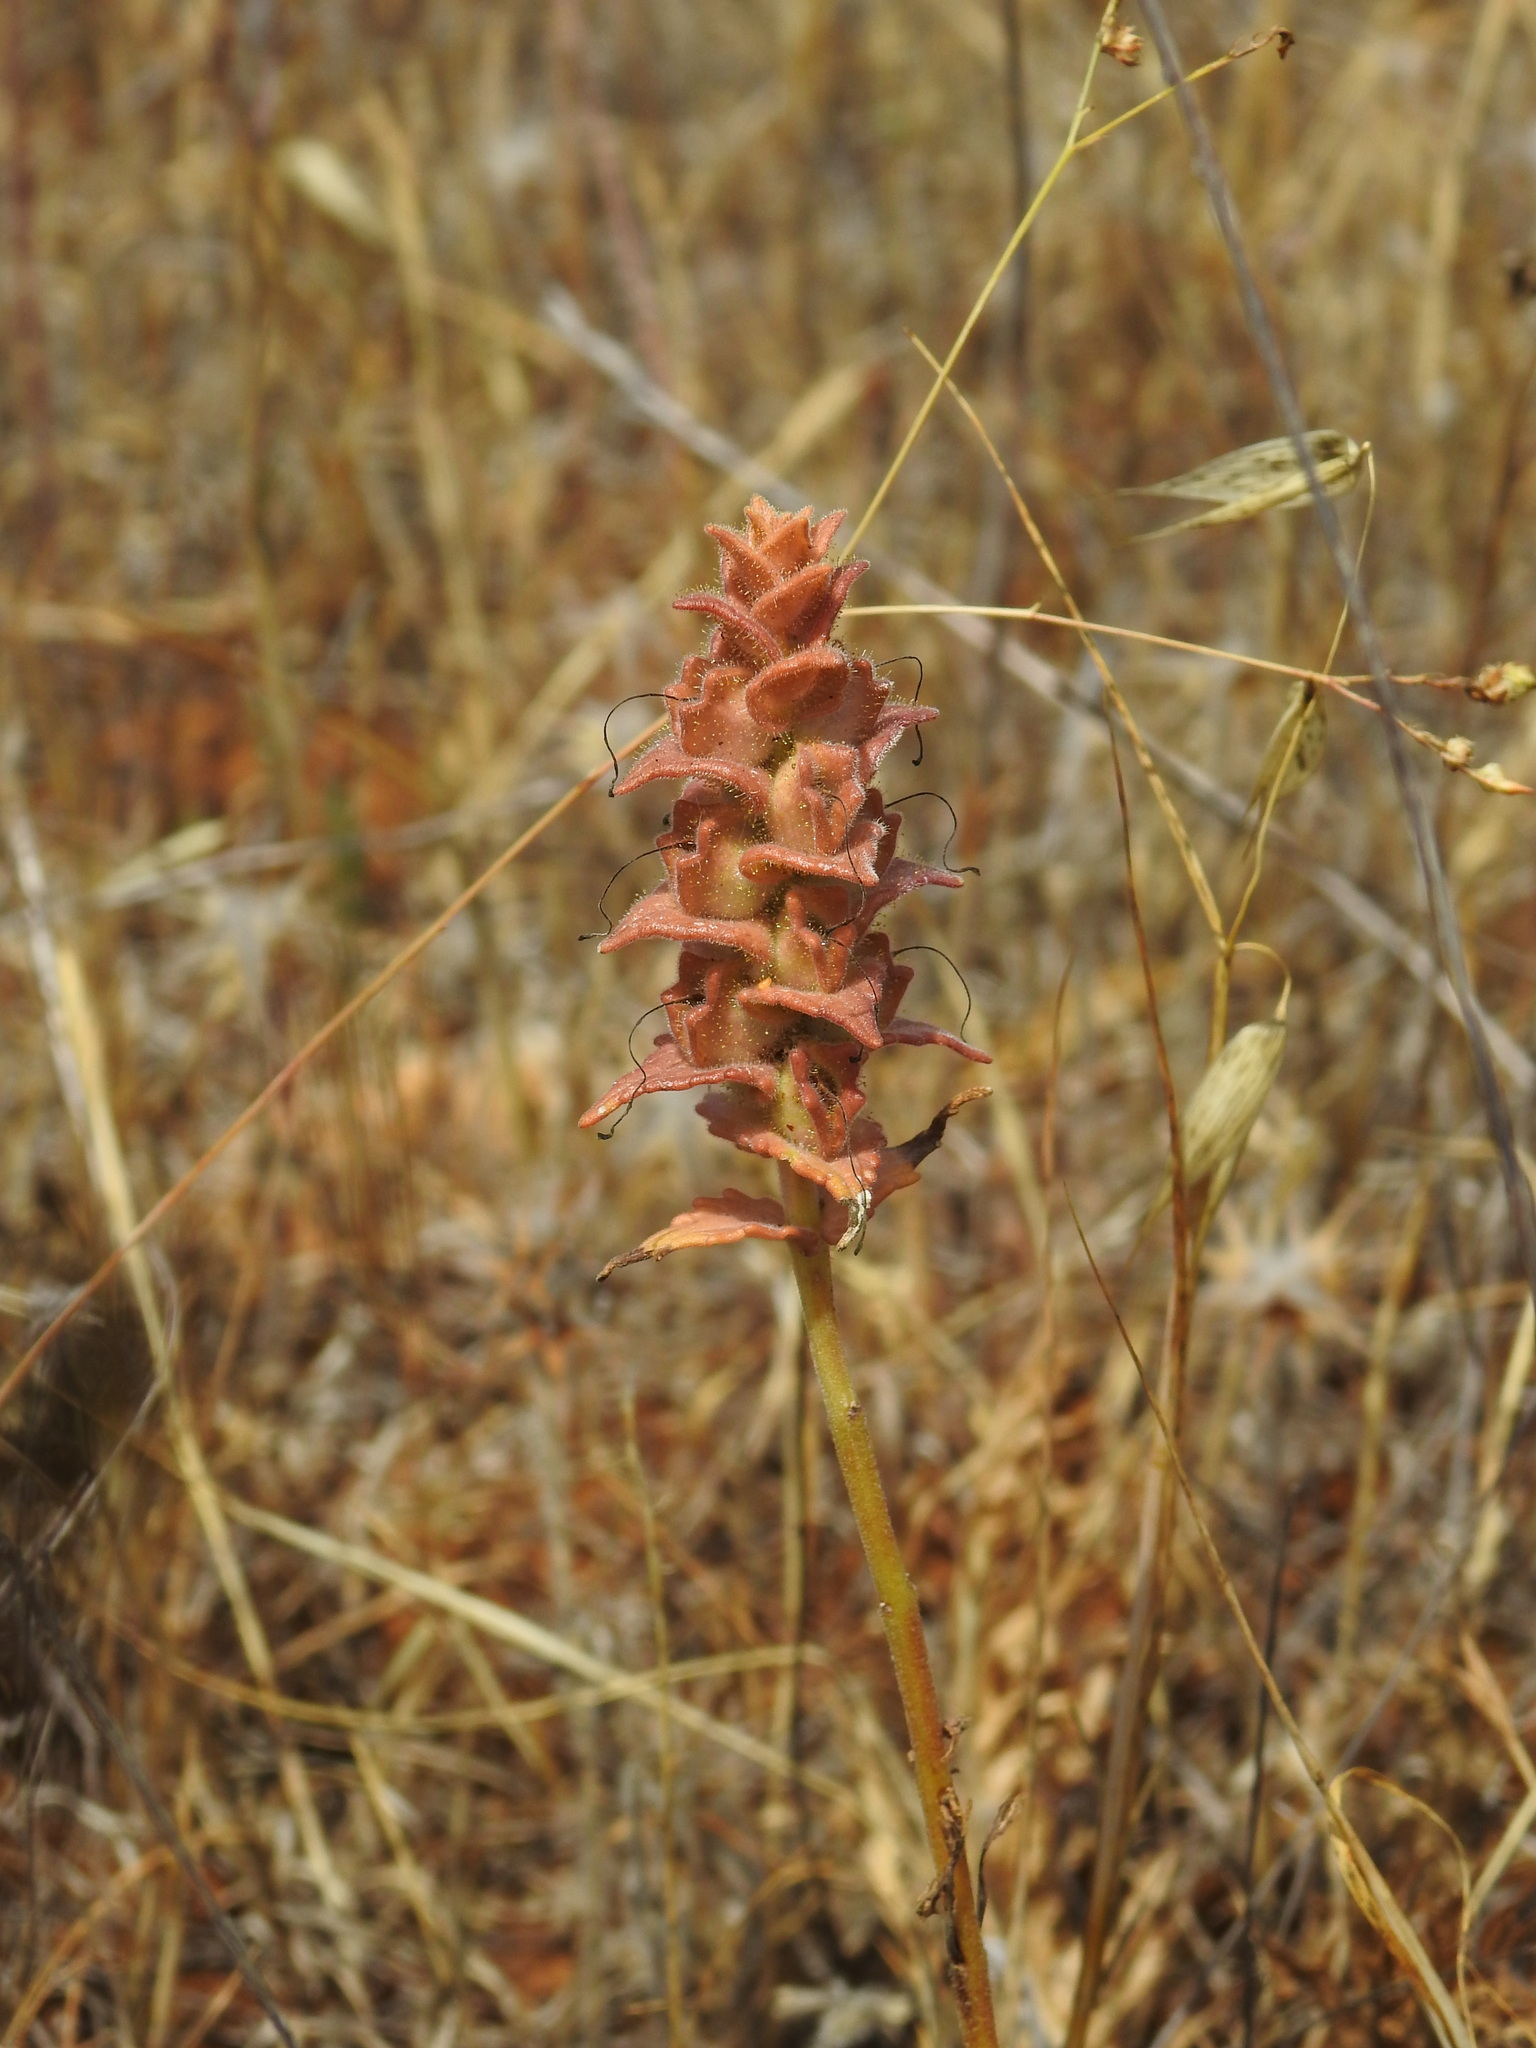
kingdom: Plantae
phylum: Tracheophyta
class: Magnoliopsida
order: Lamiales
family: Orobanchaceae
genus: Bellardia
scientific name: Bellardia trixago
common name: Mediterranean lineseed
